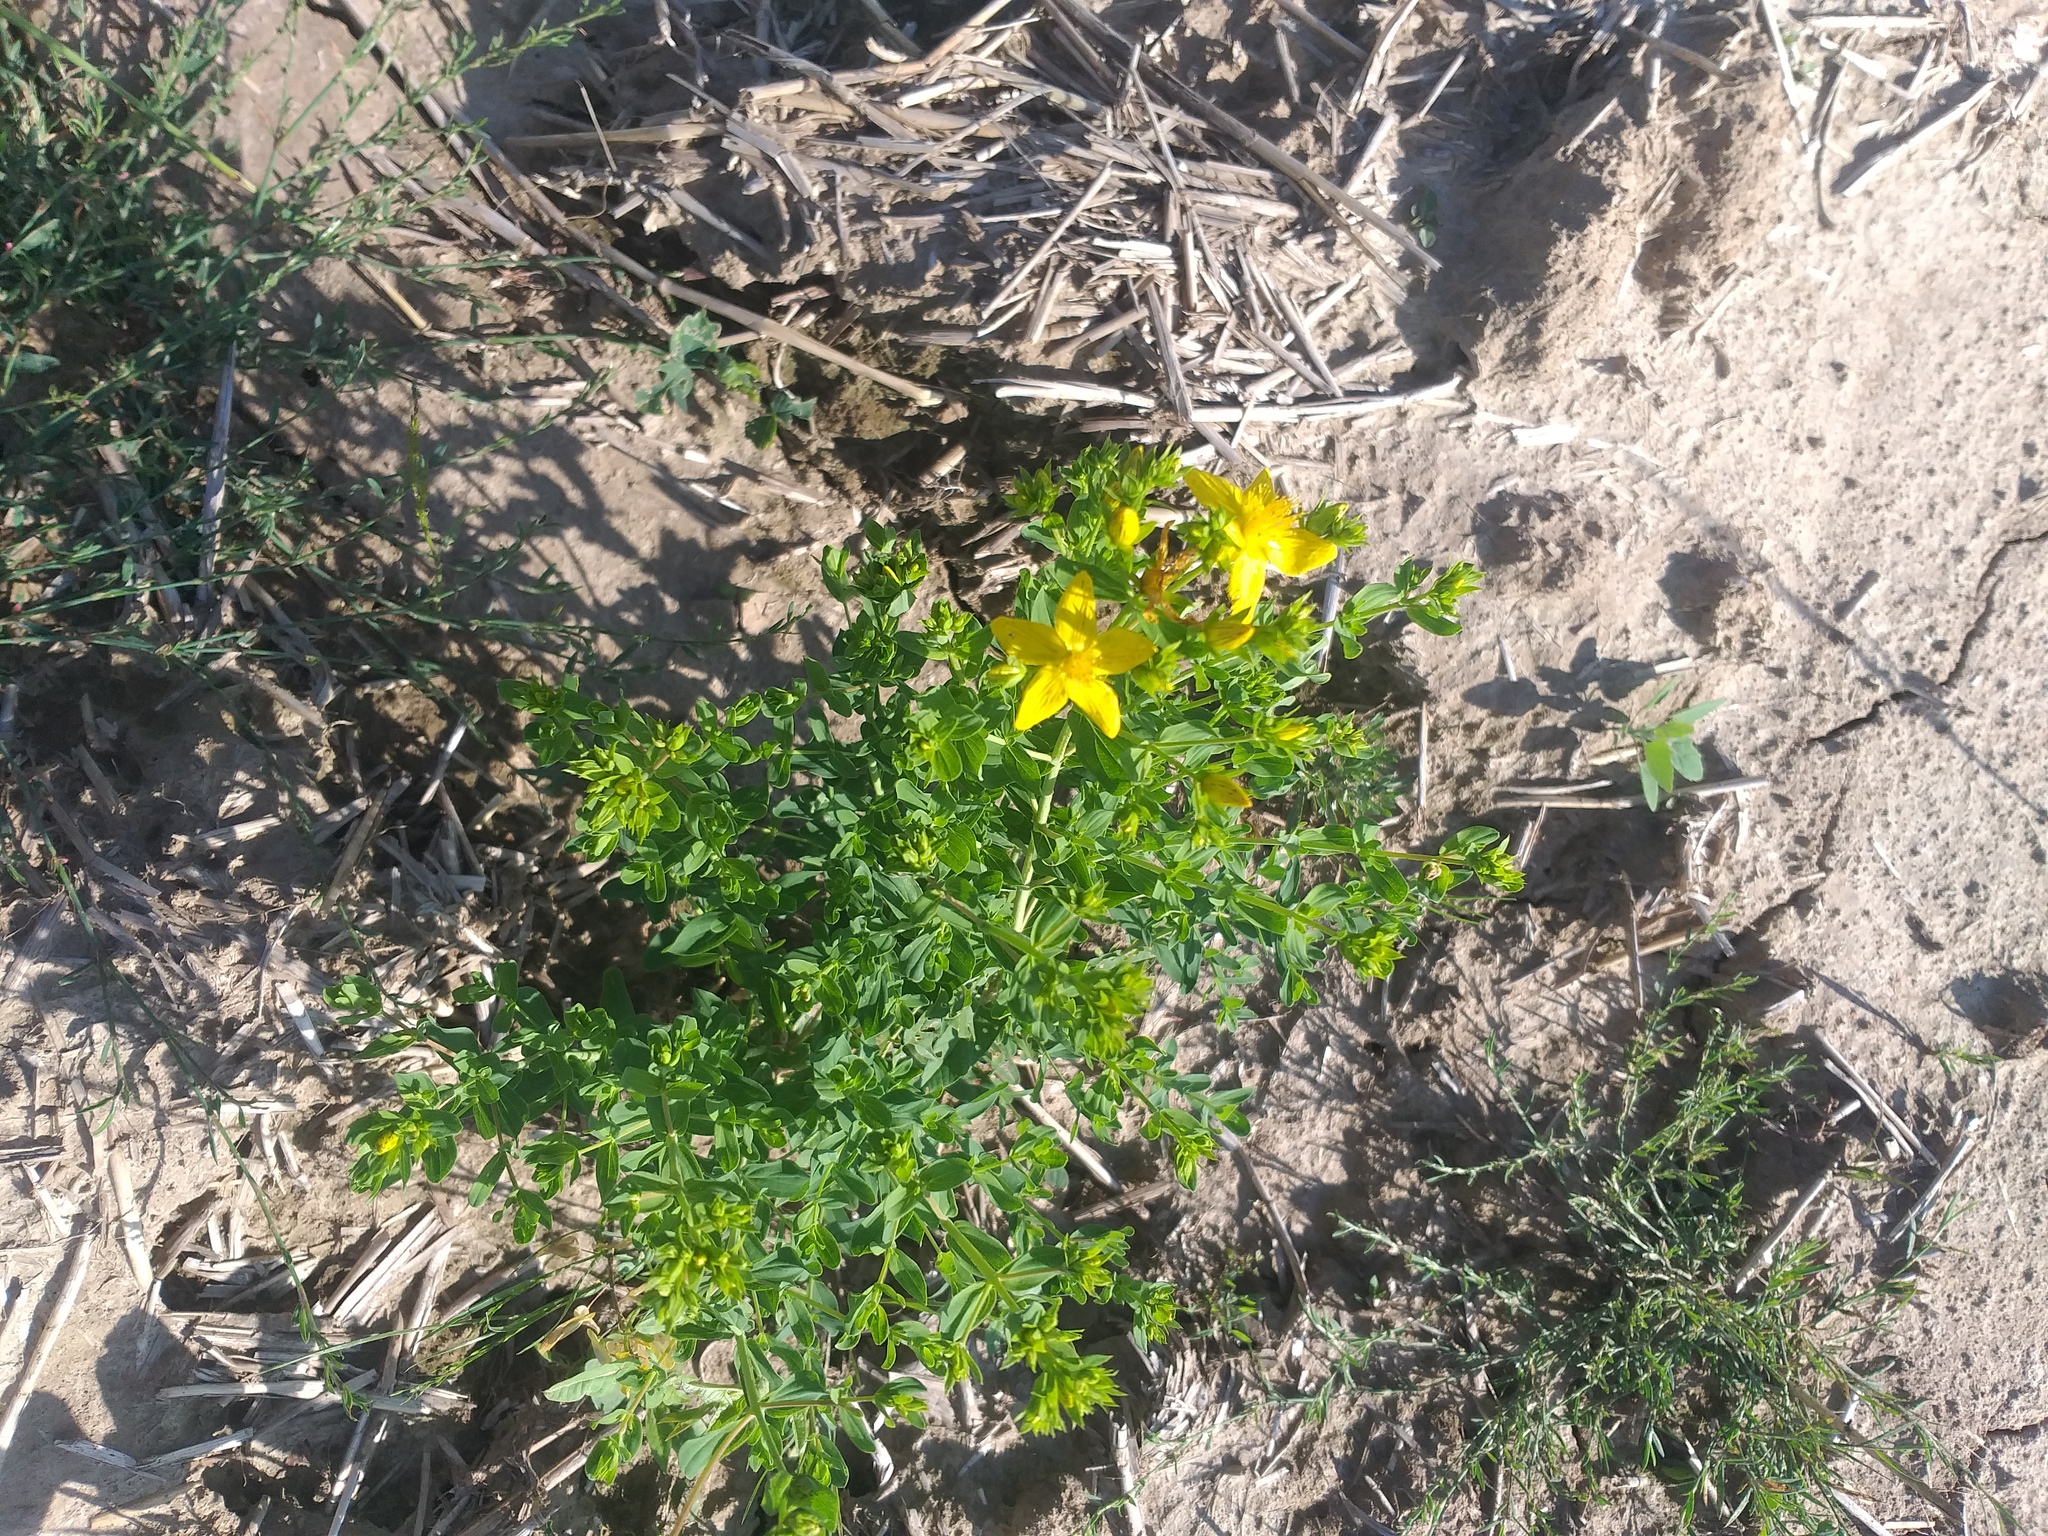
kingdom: Plantae
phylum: Tracheophyta
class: Magnoliopsida
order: Malpighiales
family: Hypericaceae
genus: Hypericum
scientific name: Hypericum perforatum
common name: Common st. johnswort
